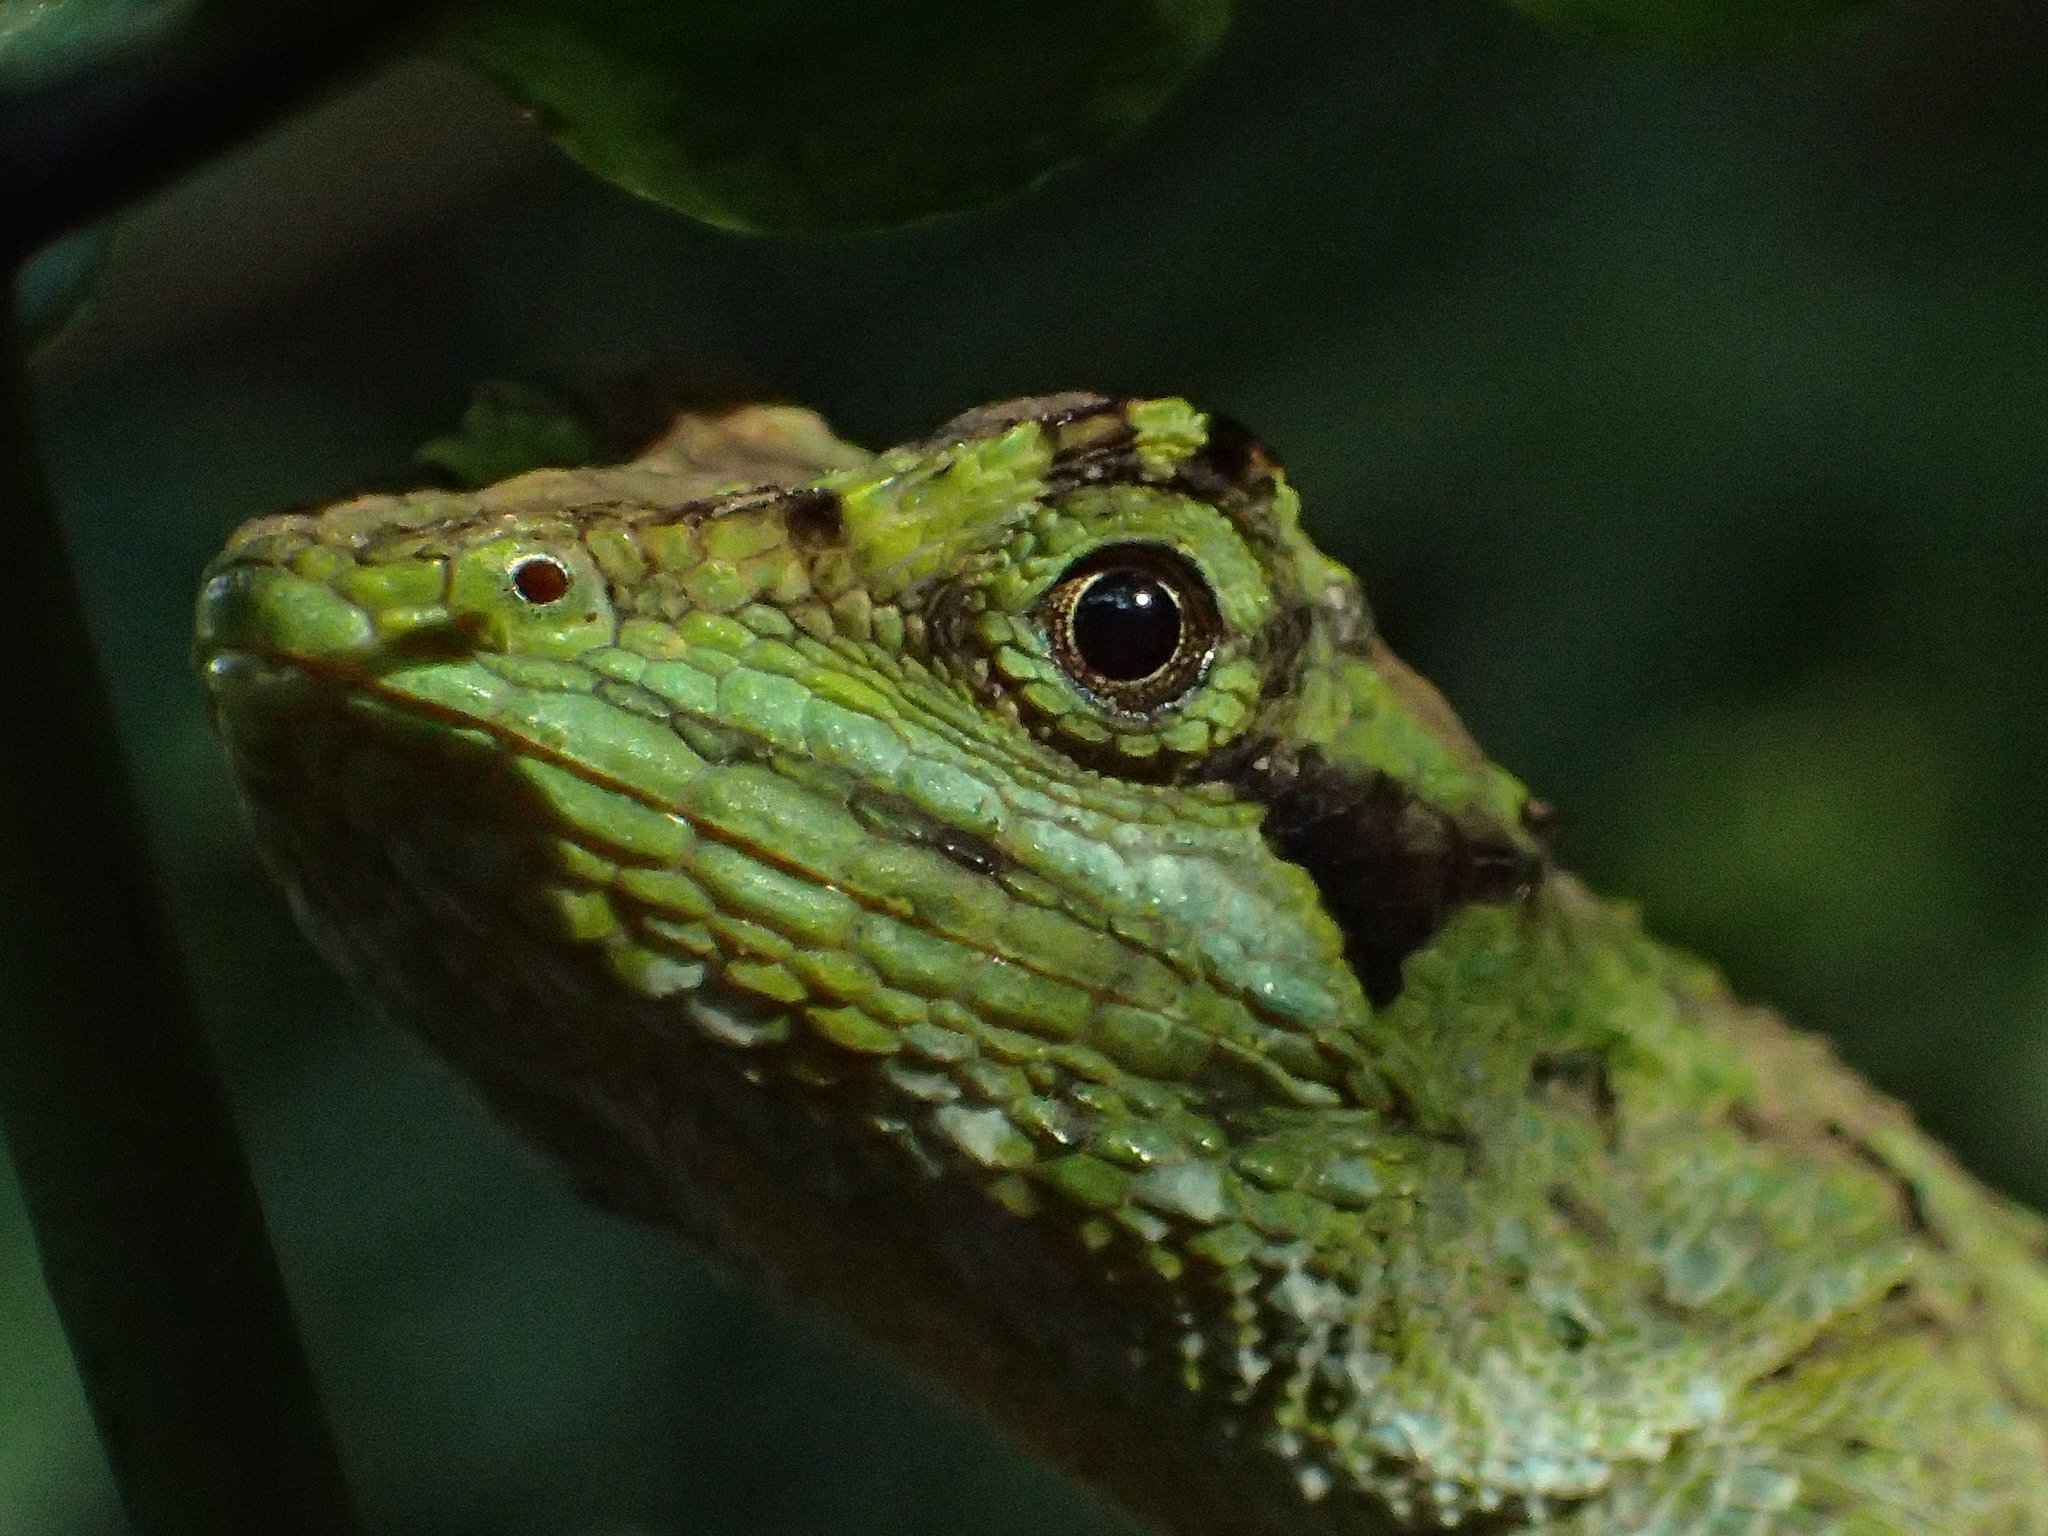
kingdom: Fungi
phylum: Basidiomycota
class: Agaricomycetes
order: Boletales
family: Diplocystidiaceae
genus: Diploderma
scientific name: Diploderma polygonatum
